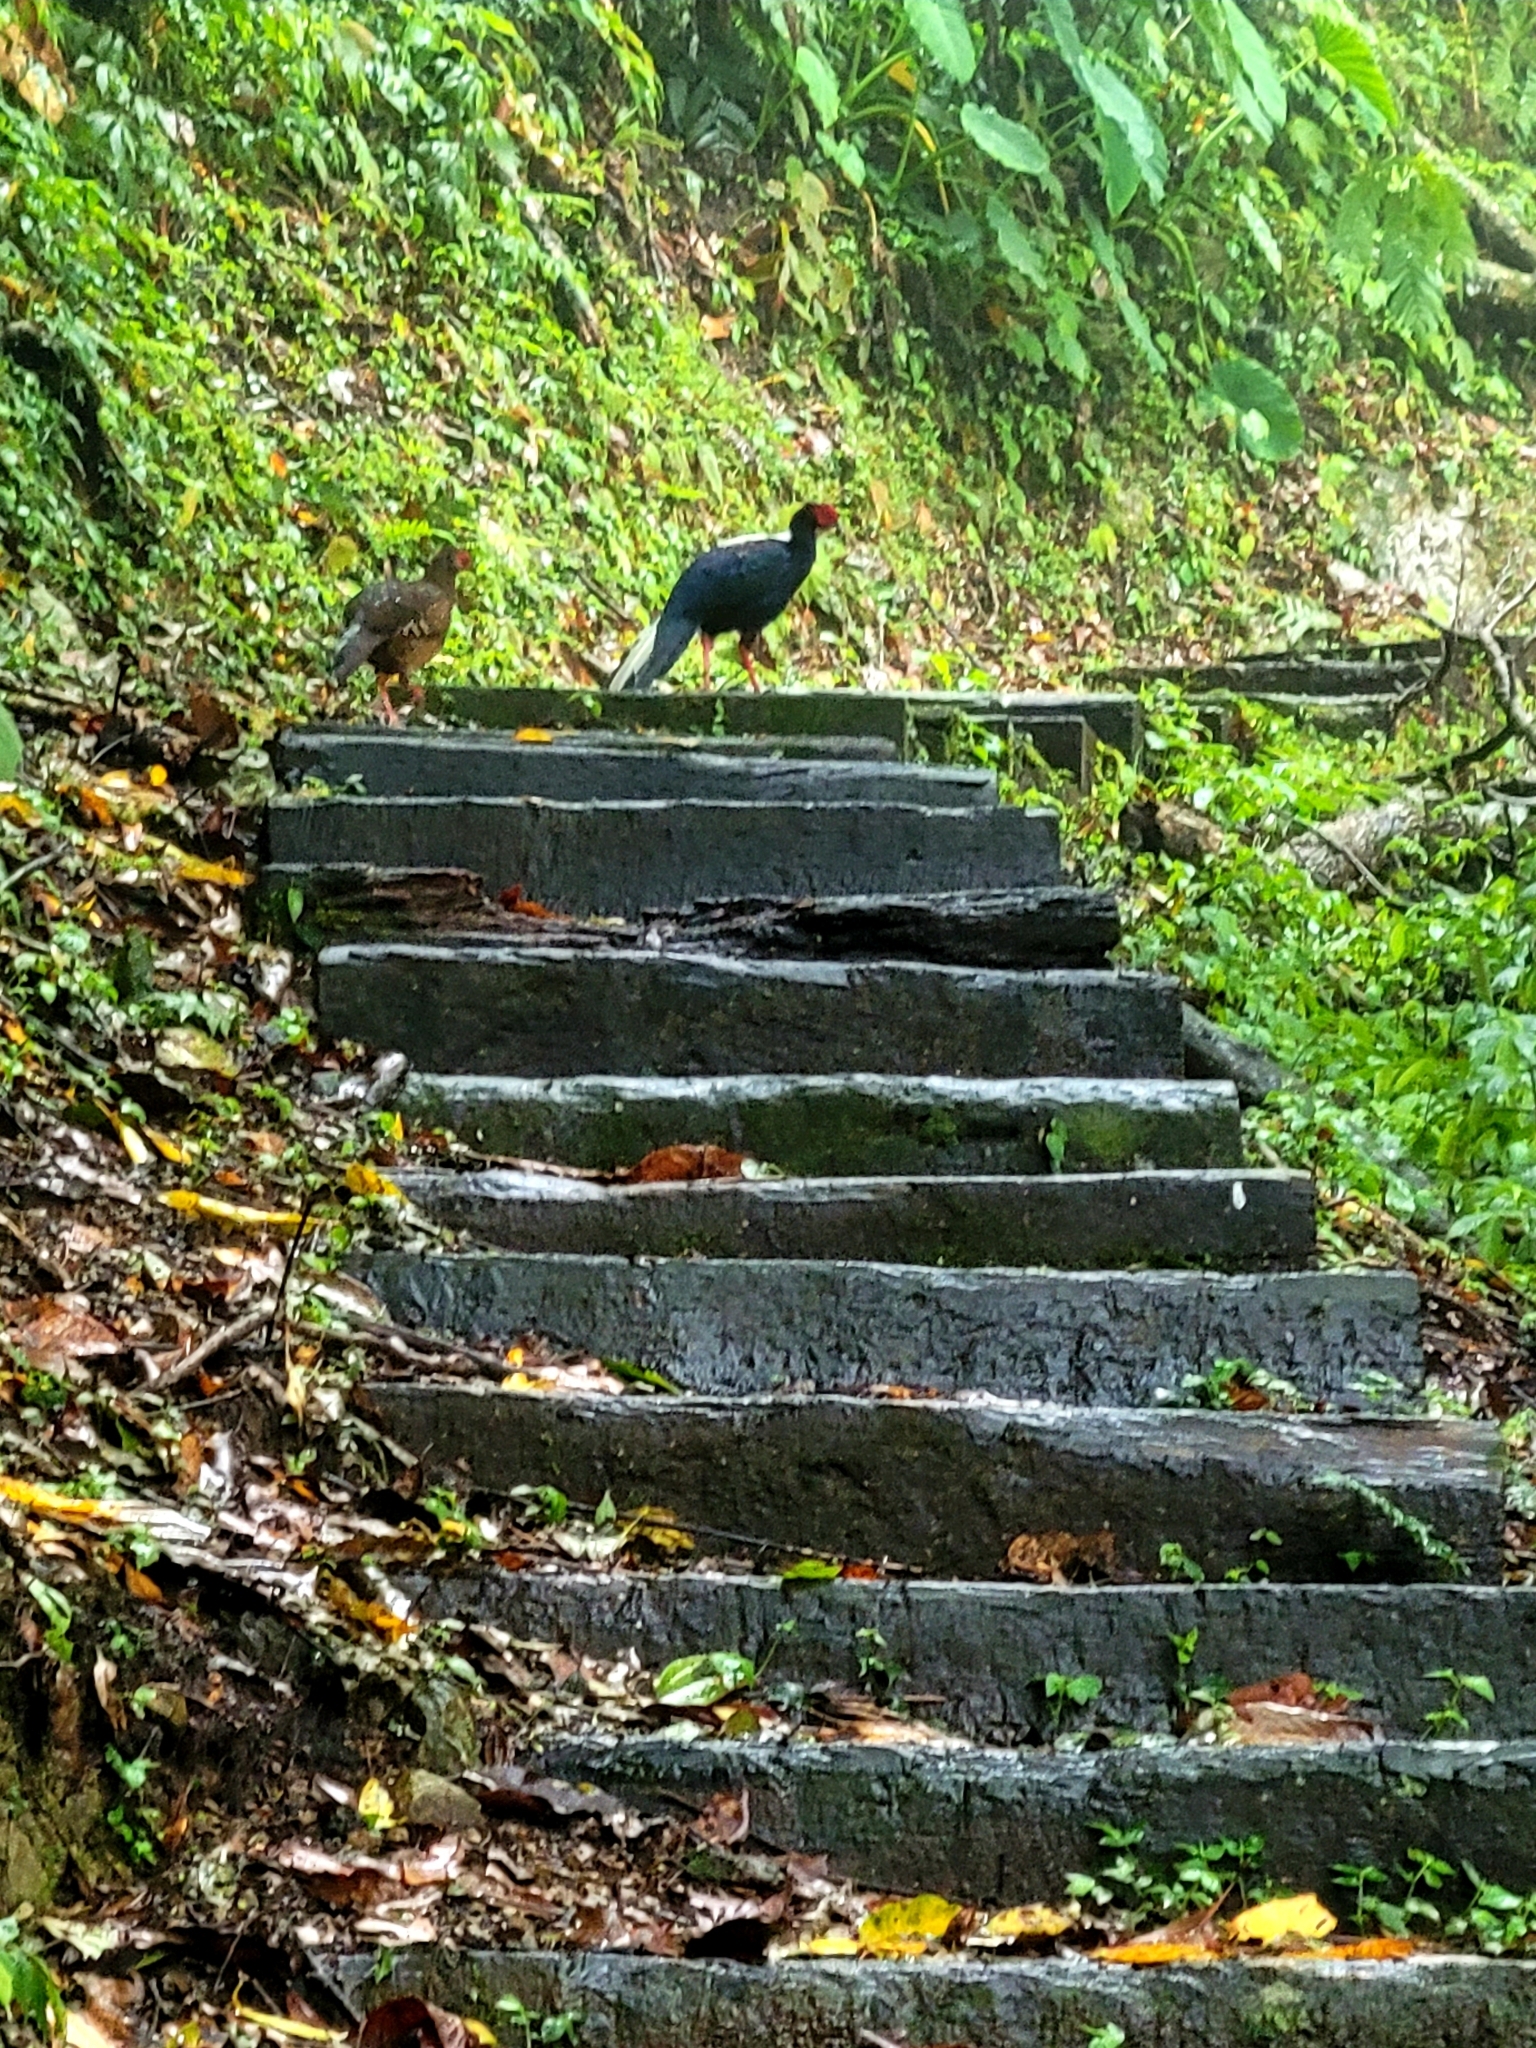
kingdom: Animalia
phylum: Chordata
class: Aves
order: Galliformes
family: Phasianidae
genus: Lophura
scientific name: Lophura swinhoii
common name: Swinhoe's pheasant
